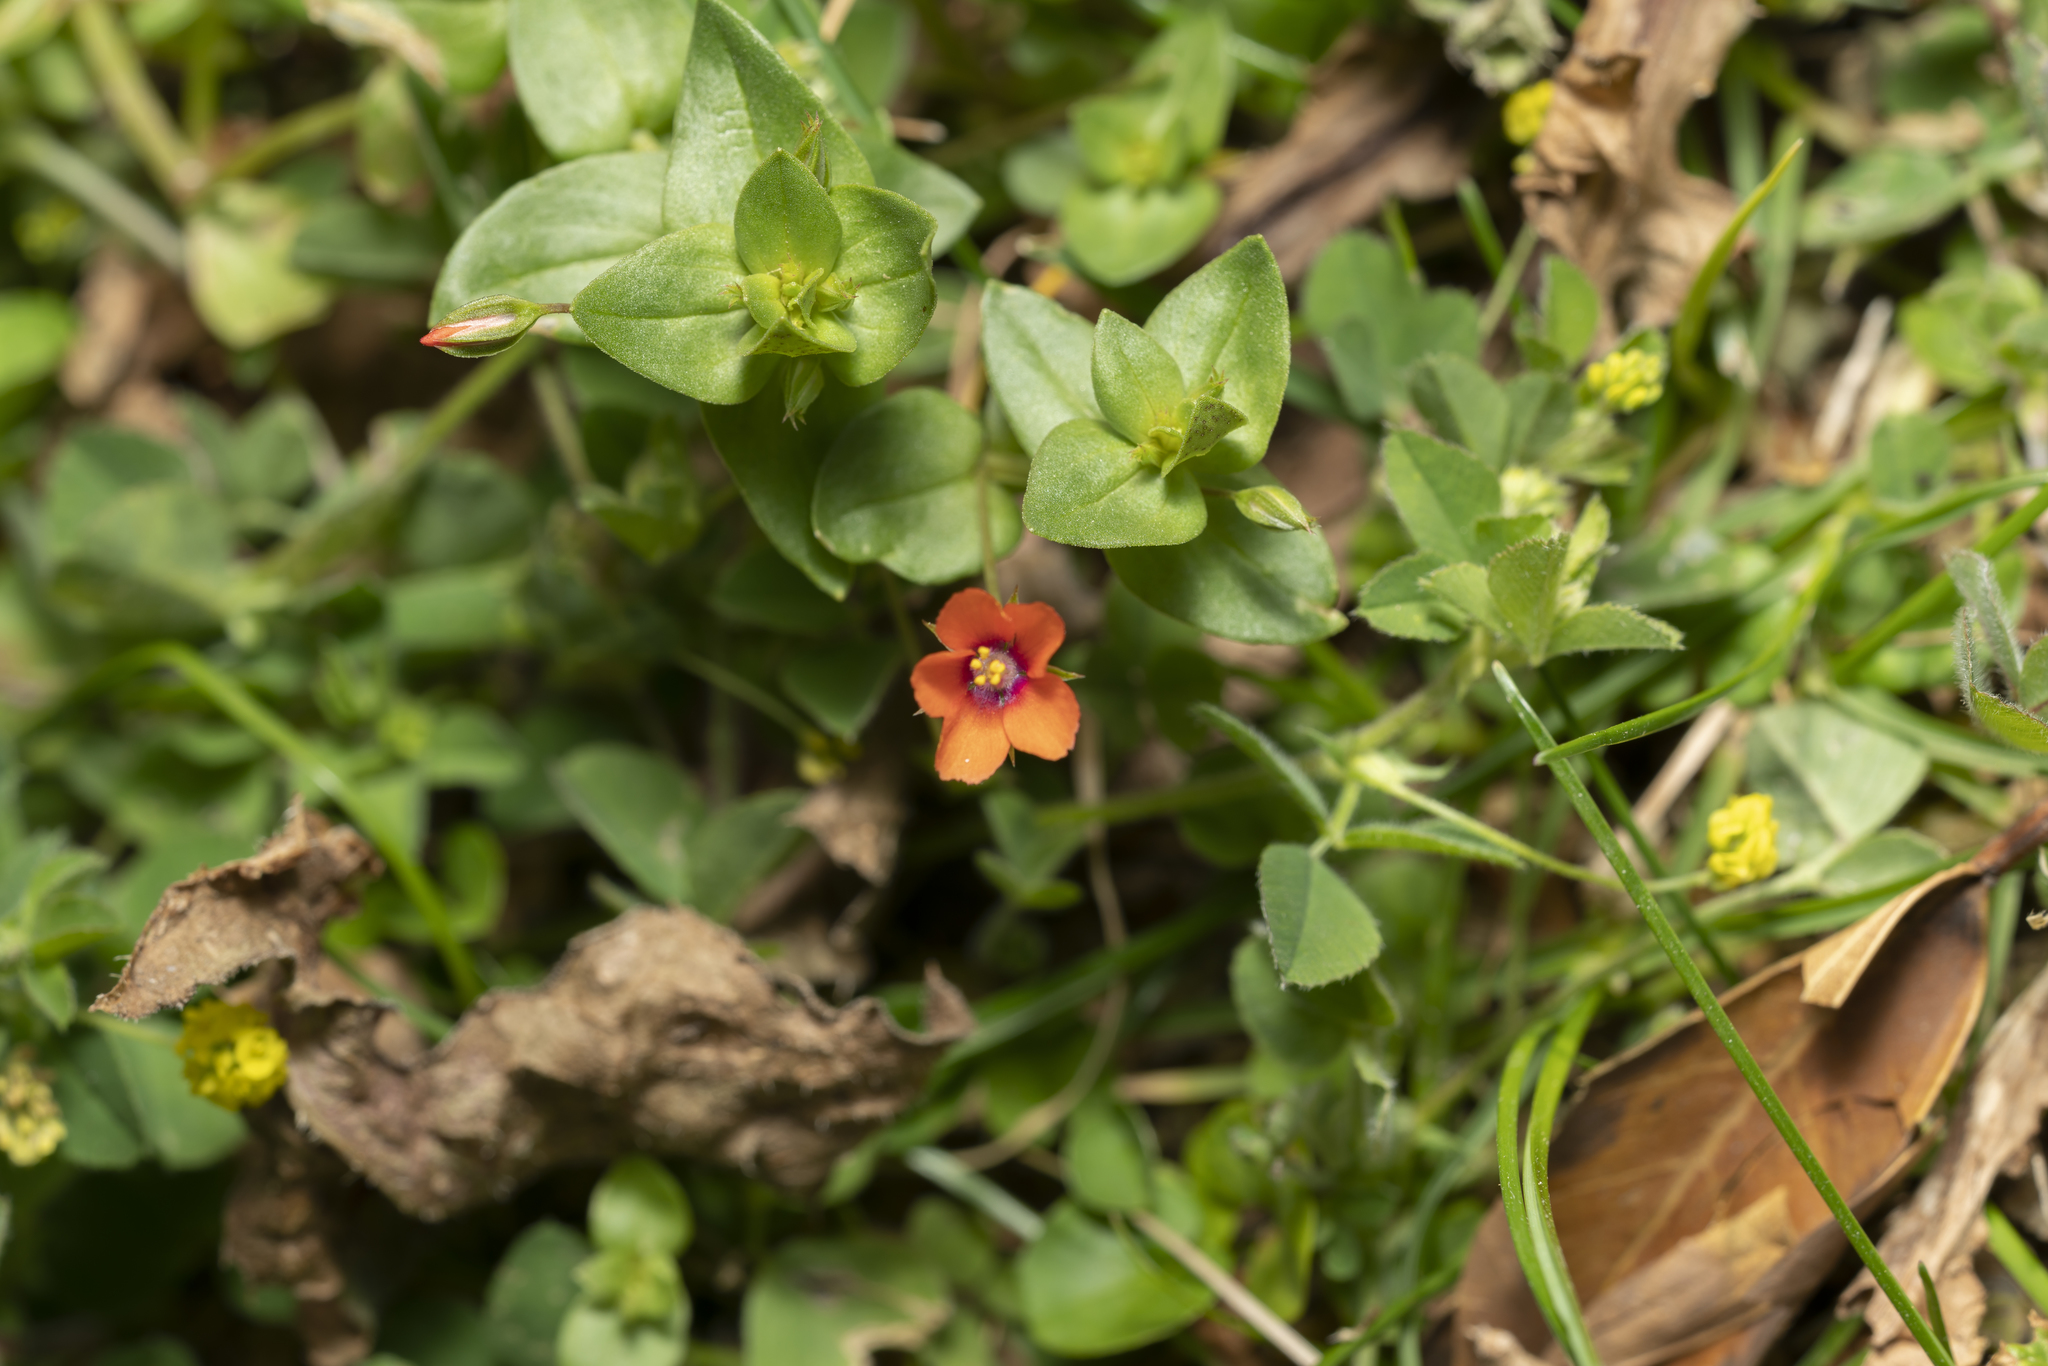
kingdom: Plantae
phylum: Tracheophyta
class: Magnoliopsida
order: Ericales
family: Primulaceae
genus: Lysimachia
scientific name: Lysimachia arvensis
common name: Scarlet pimpernel
